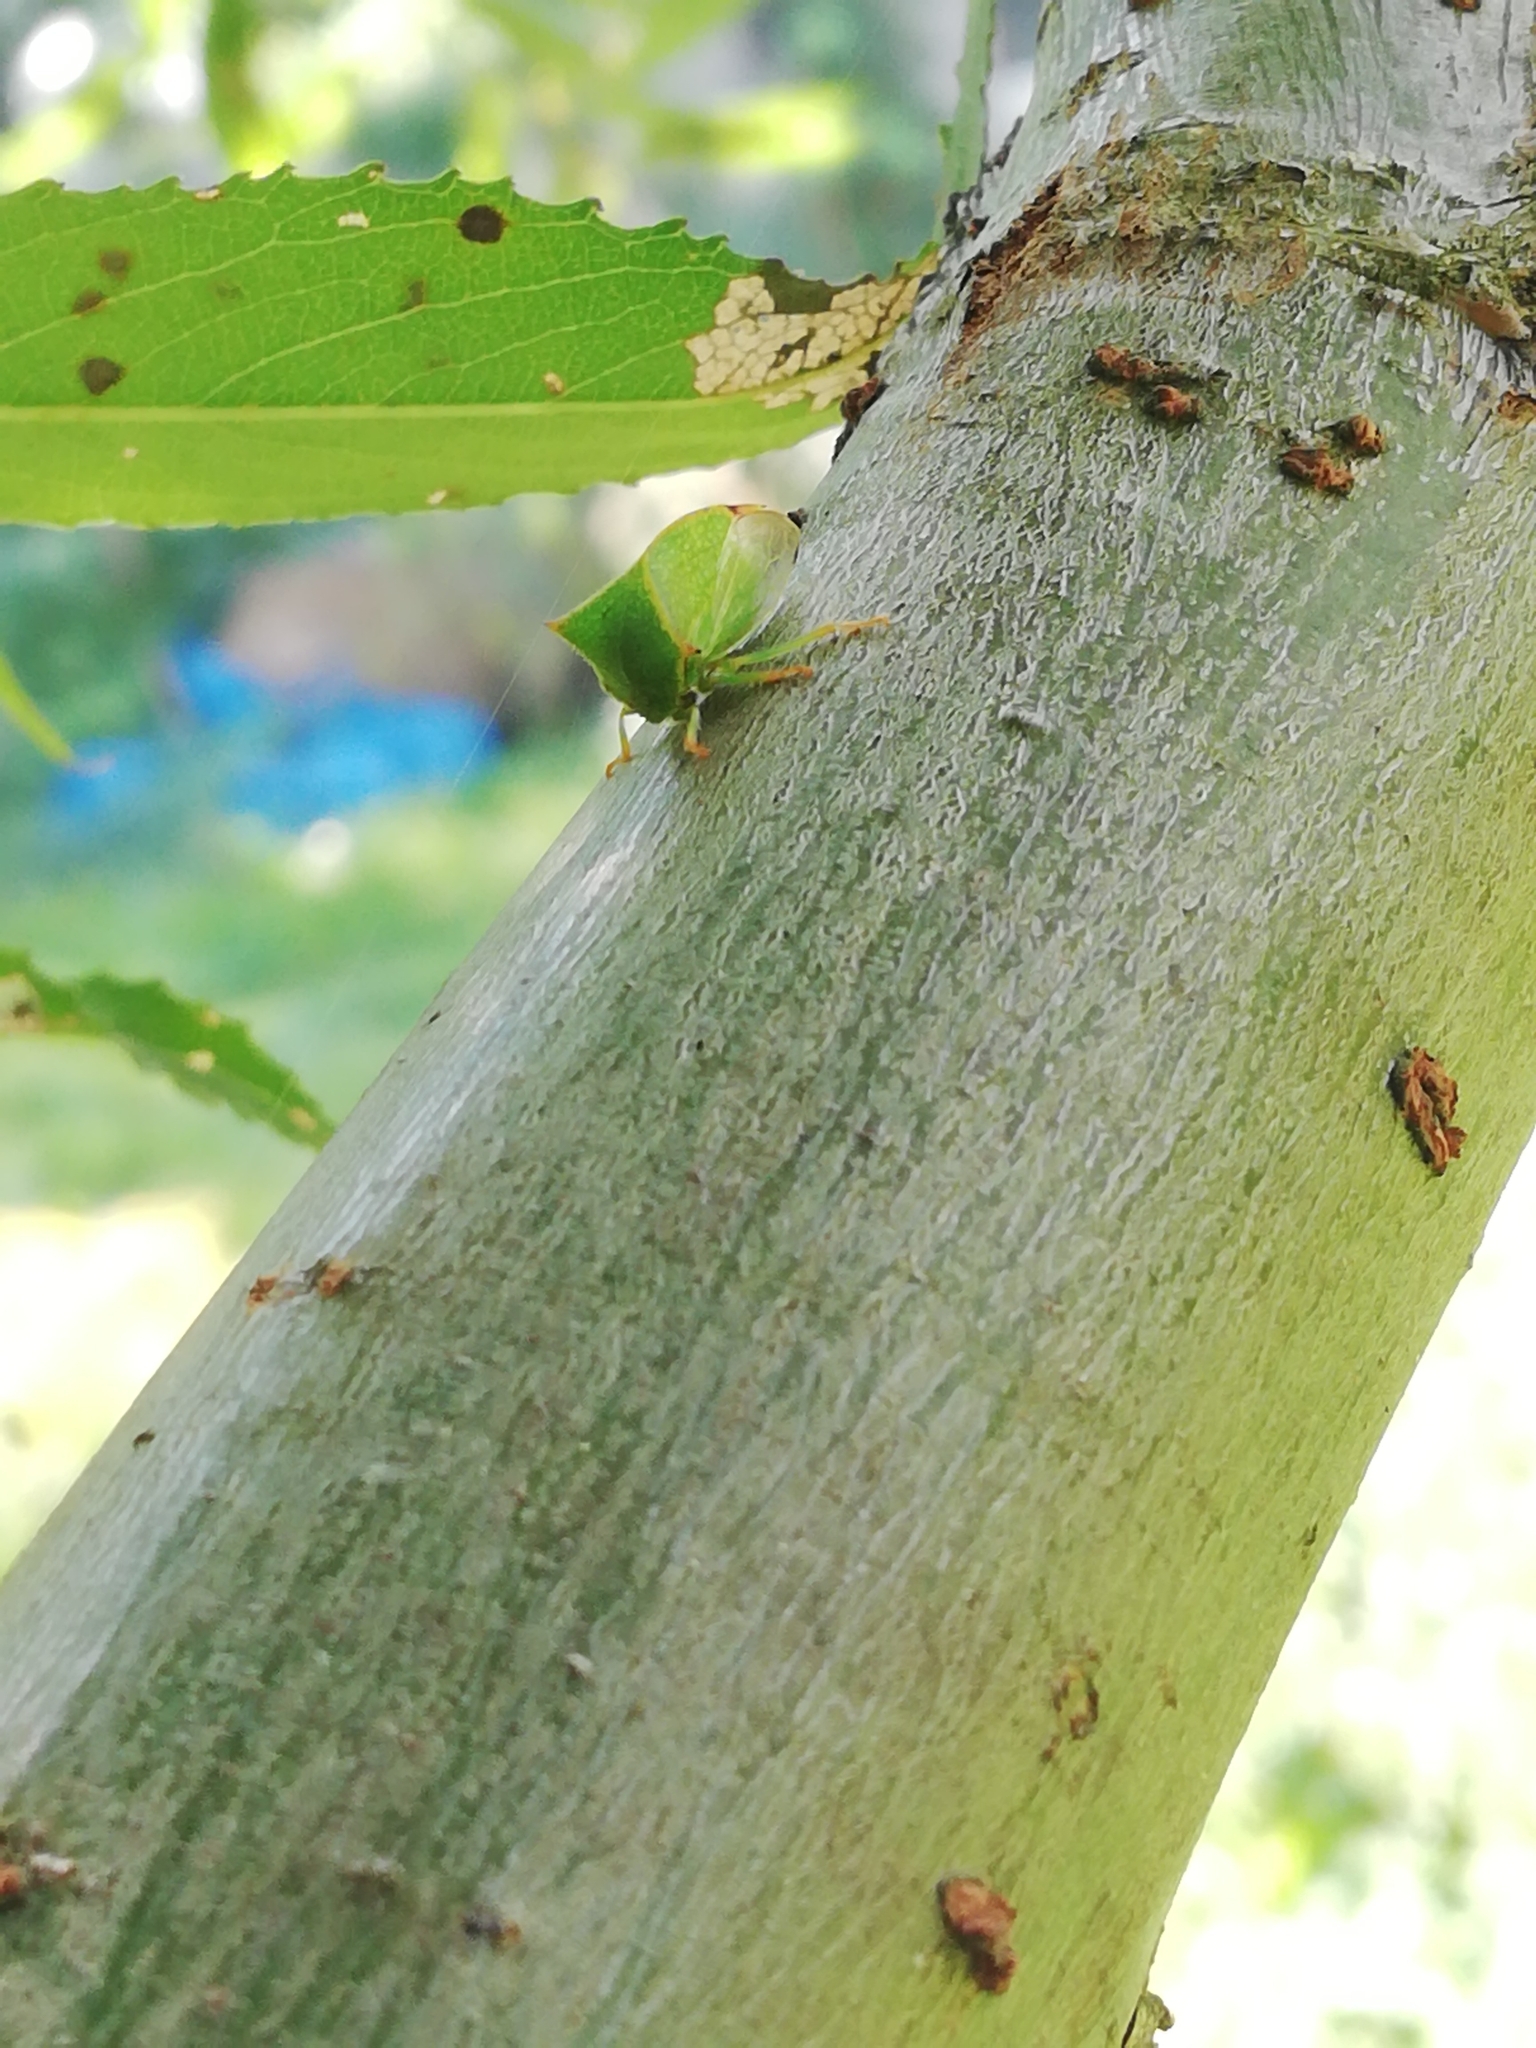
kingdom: Animalia
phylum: Arthropoda
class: Insecta
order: Hemiptera
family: Membracidae
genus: Stictocephala
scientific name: Stictocephala bisonia
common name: American buffalo treehopper
